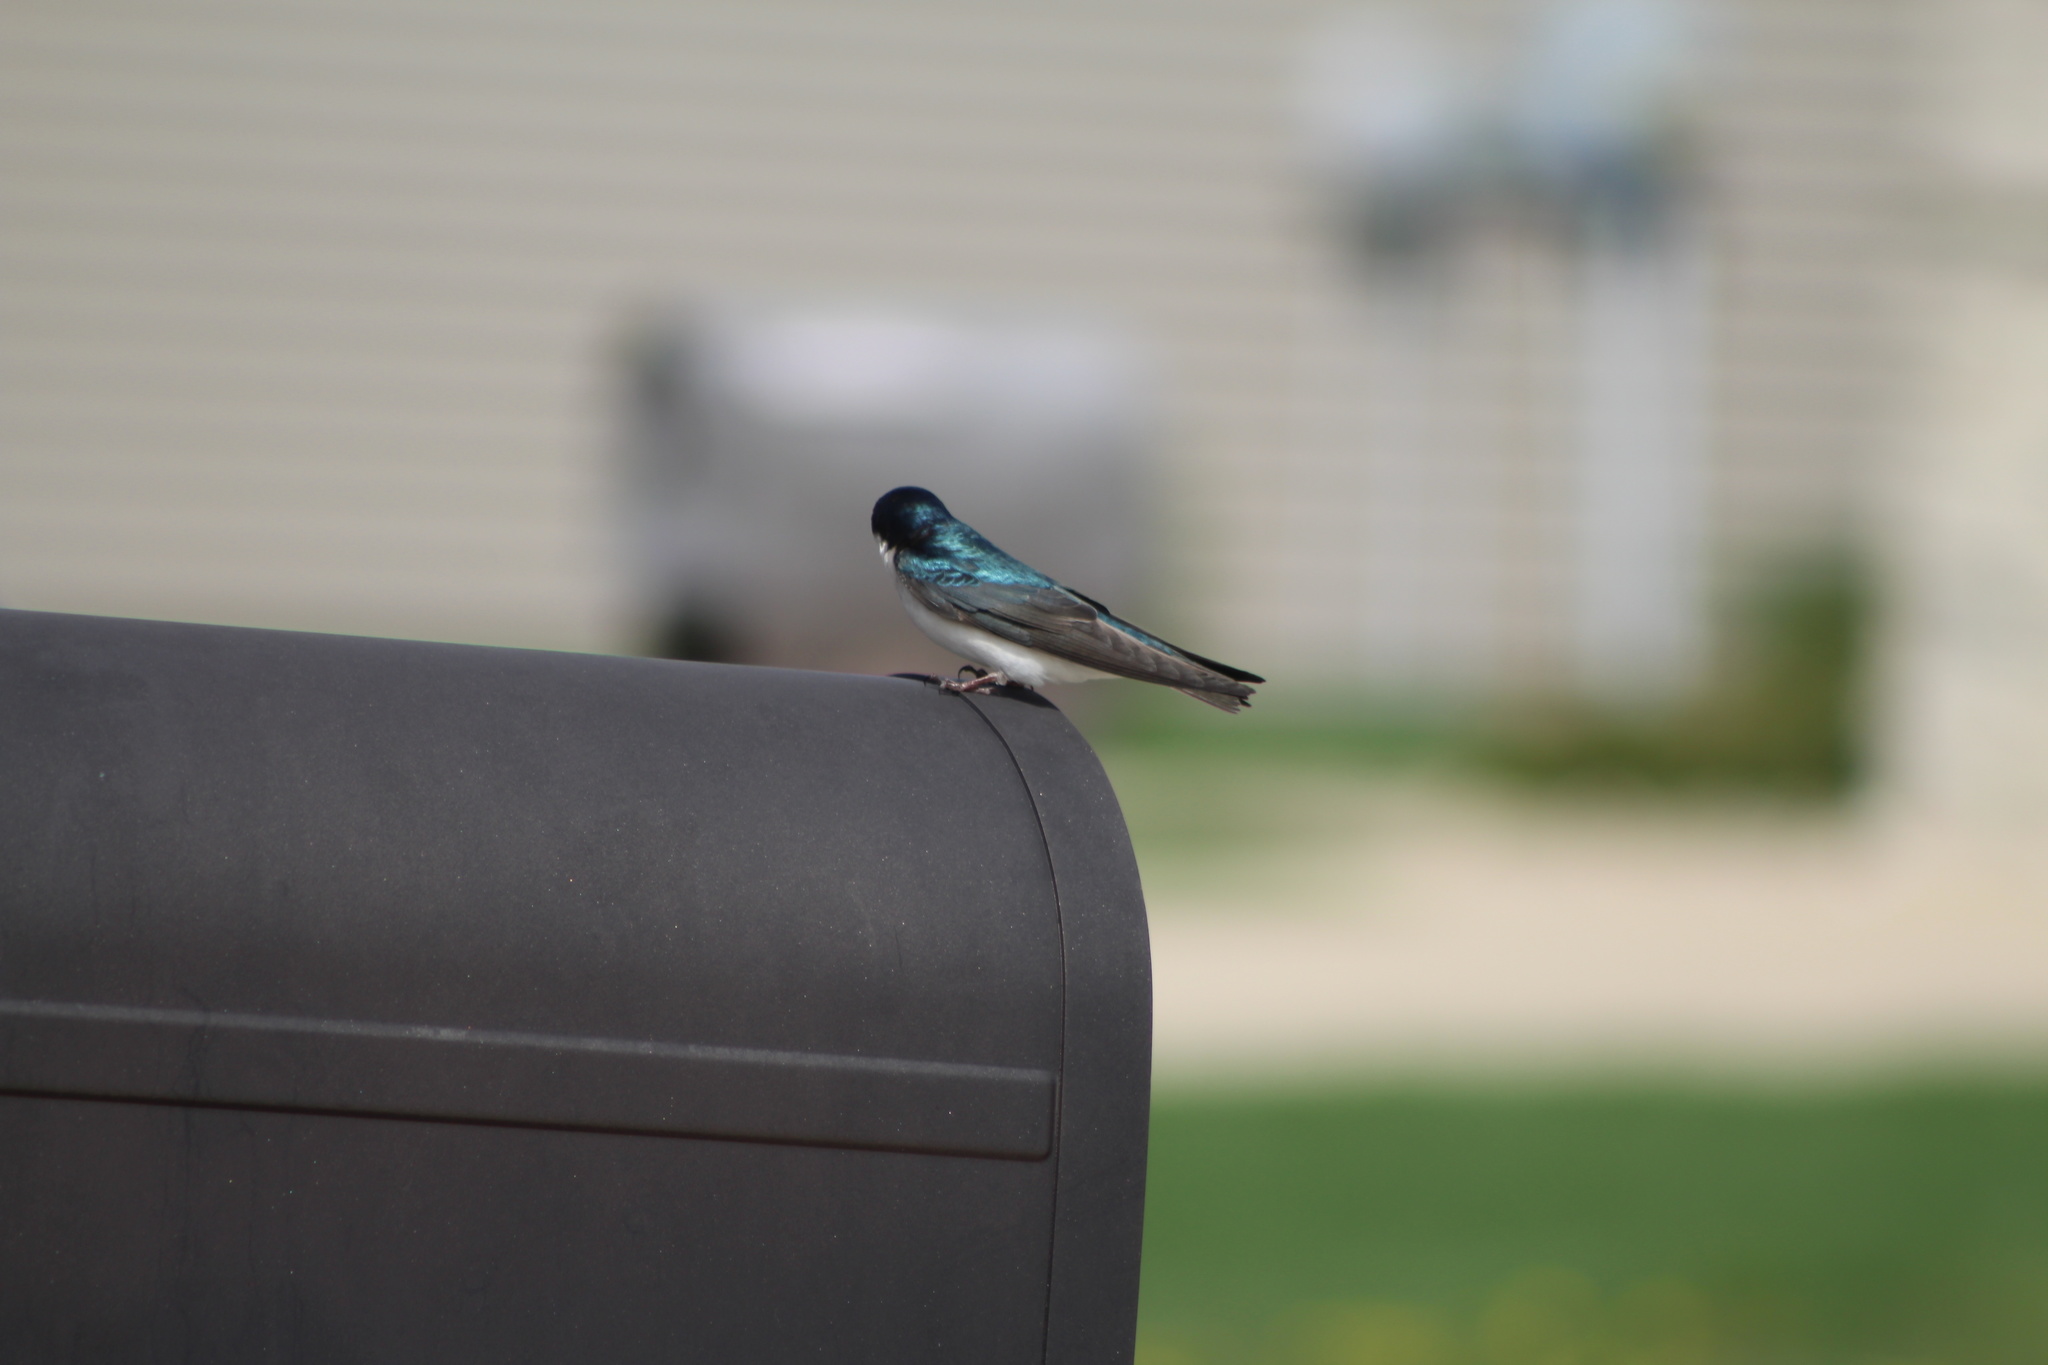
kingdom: Animalia
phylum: Chordata
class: Aves
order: Passeriformes
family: Hirundinidae
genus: Tachycineta
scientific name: Tachycineta bicolor
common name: Tree swallow
